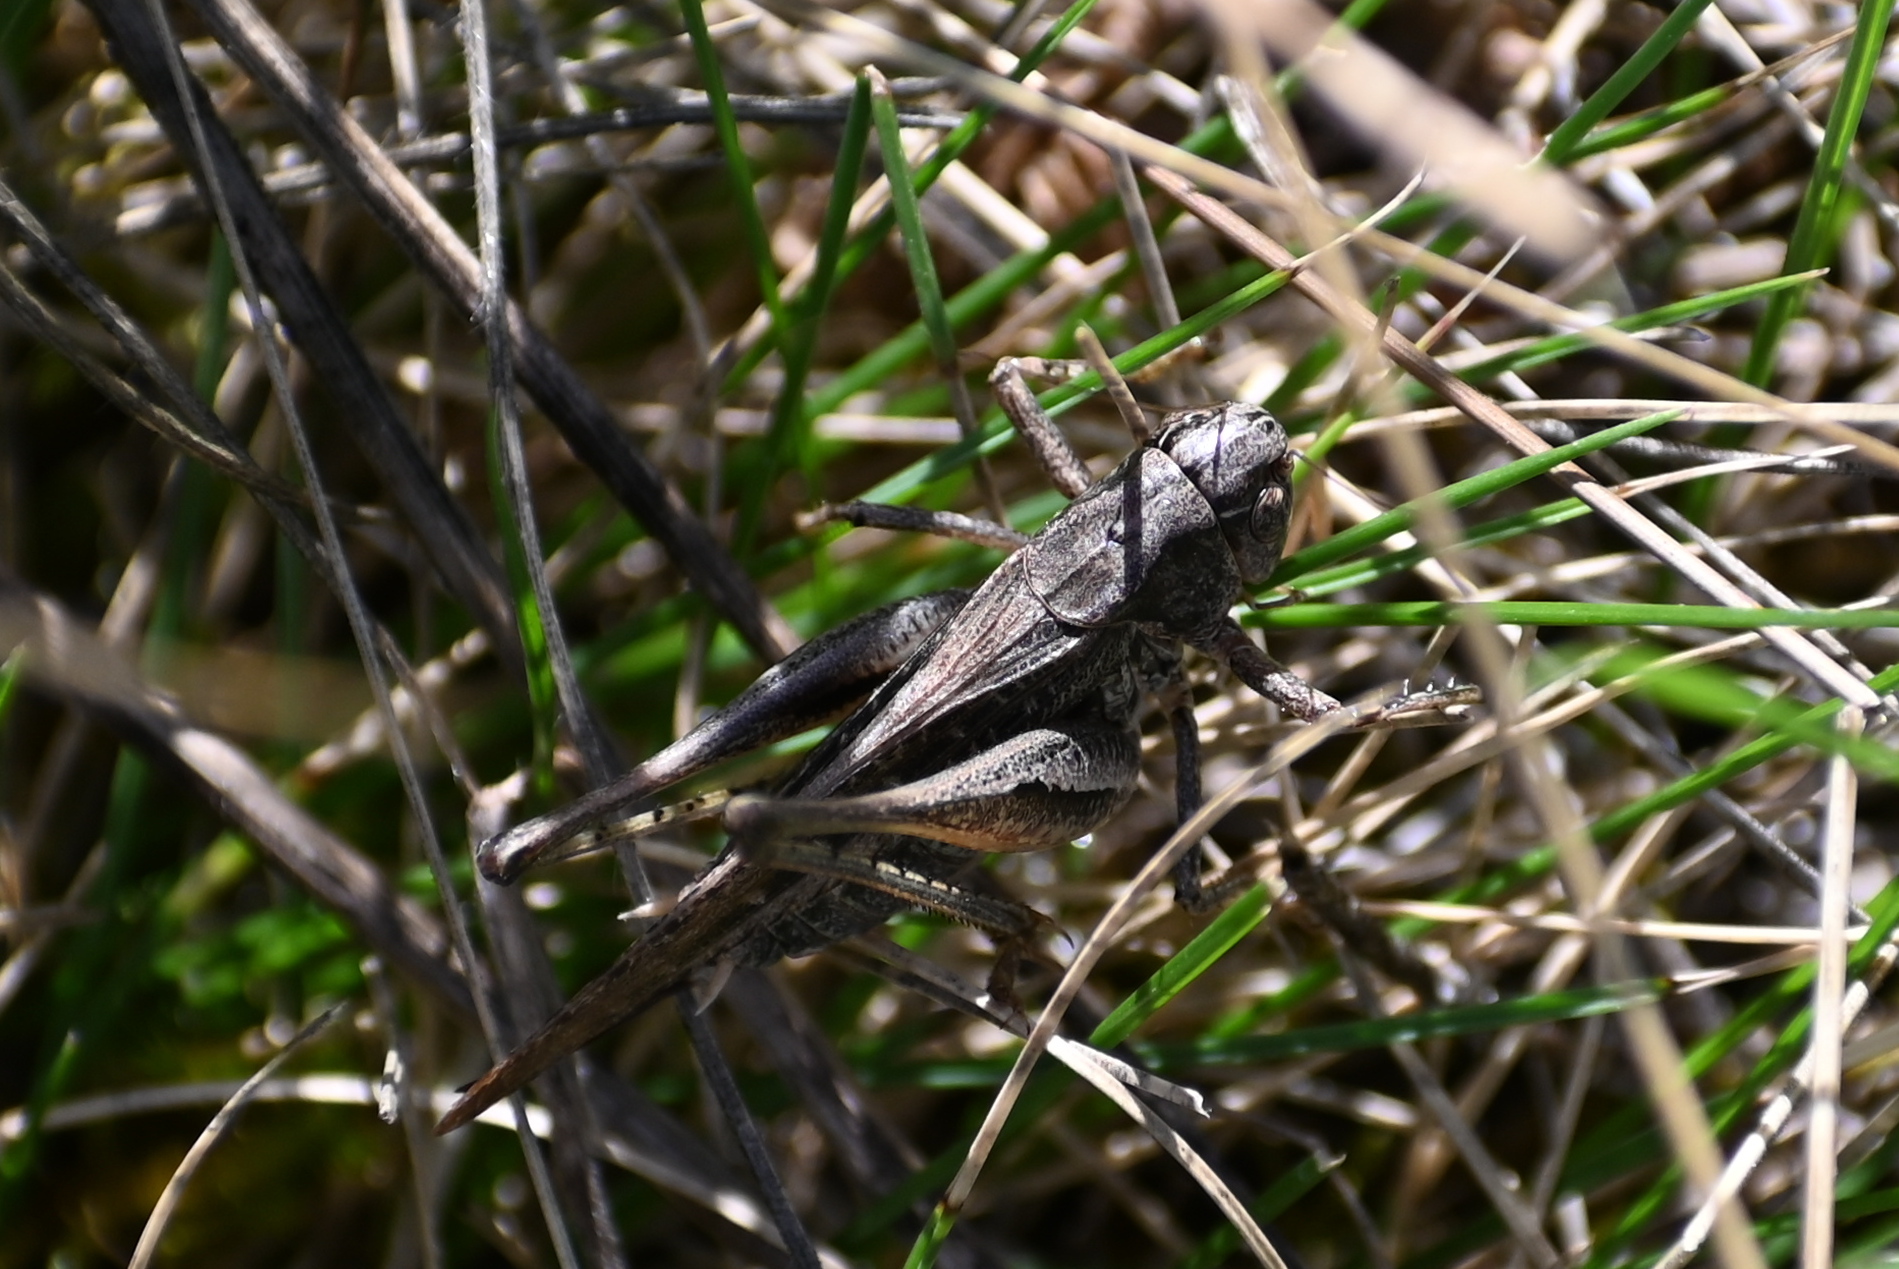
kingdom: Animalia
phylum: Arthropoda
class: Insecta
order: Orthoptera
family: Tettigoniidae
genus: Platycleis
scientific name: Platycleis albopunctata
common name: Grey bush-cricket
